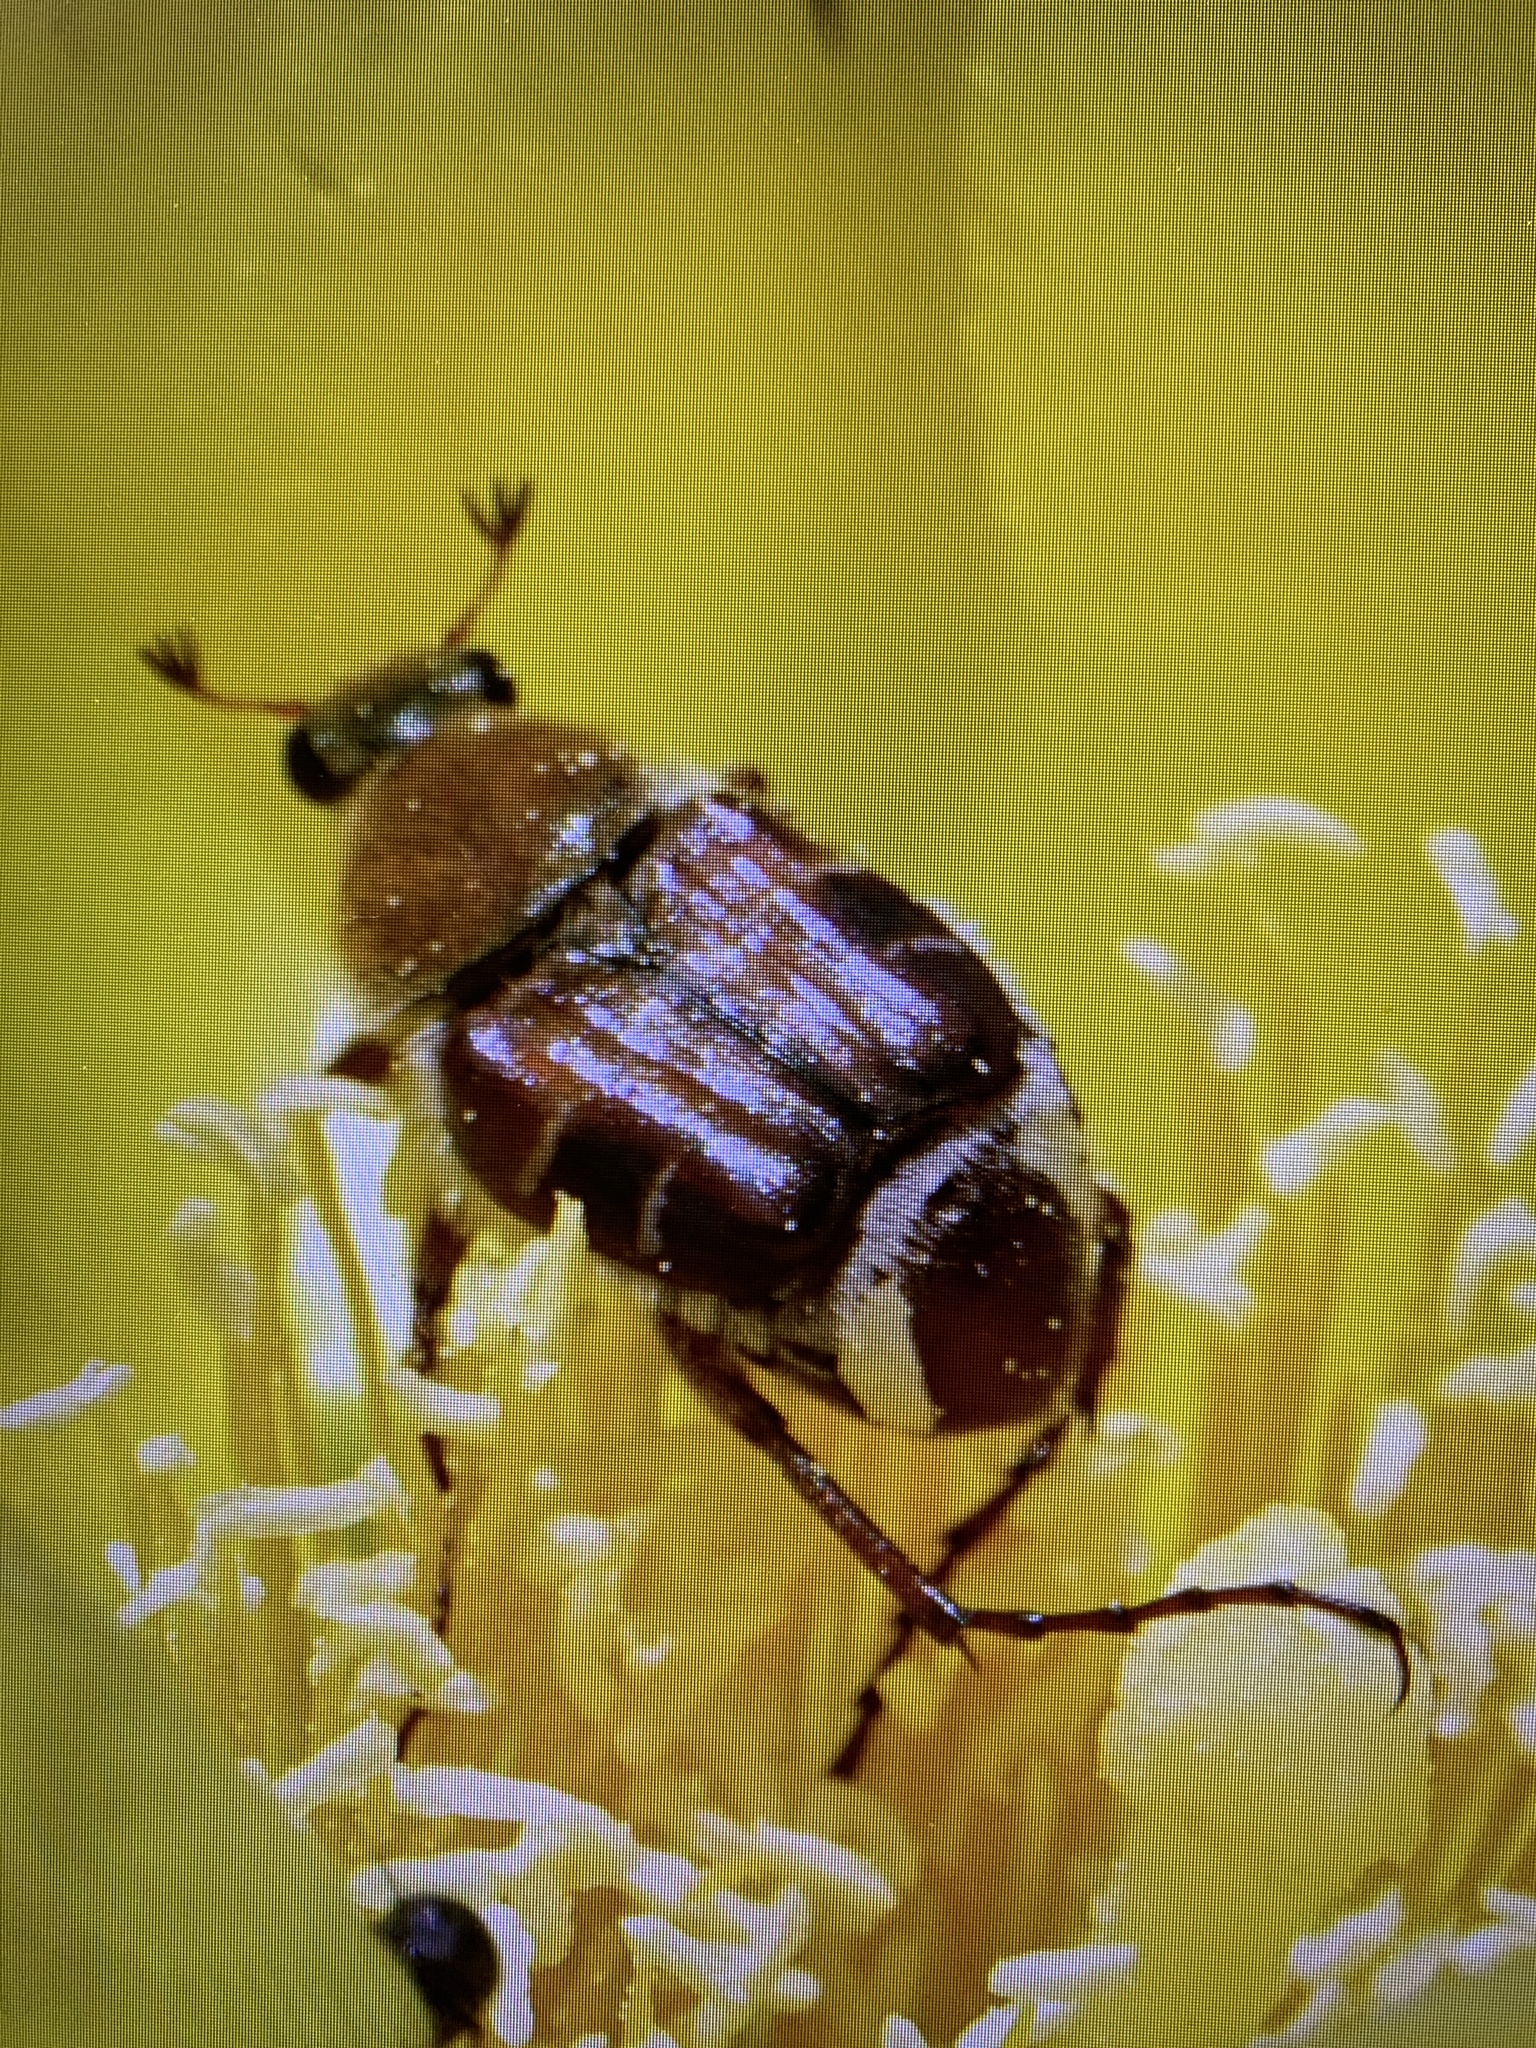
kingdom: Animalia
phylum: Arthropoda
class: Insecta
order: Coleoptera
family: Scarabaeidae
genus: Trichiotinus
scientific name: Trichiotinus rufobrunneus
